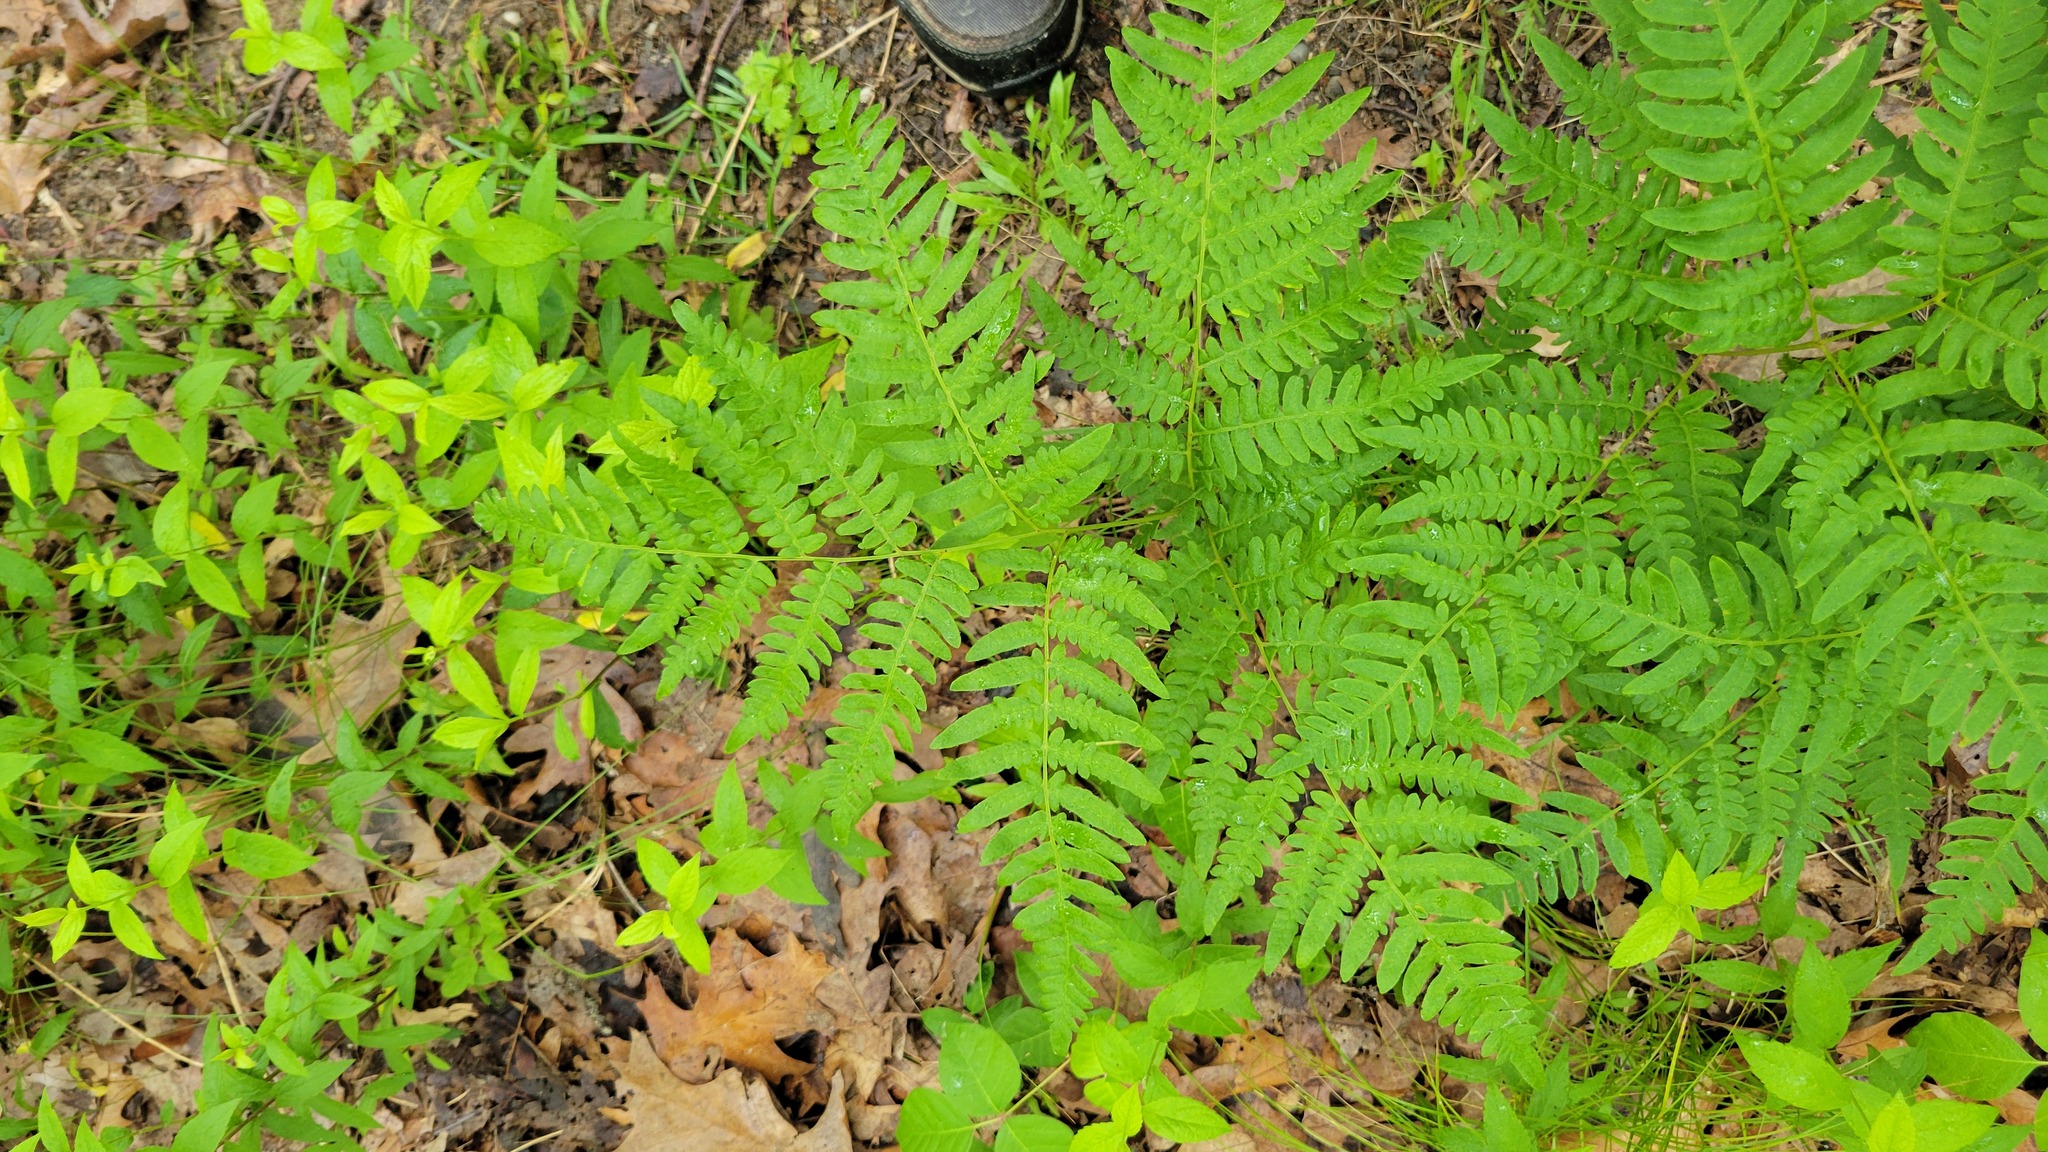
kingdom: Plantae
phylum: Tracheophyta
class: Polypodiopsida
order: Polypodiales
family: Dennstaedtiaceae
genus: Pteridium
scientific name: Pteridium aquilinum
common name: Bracken
